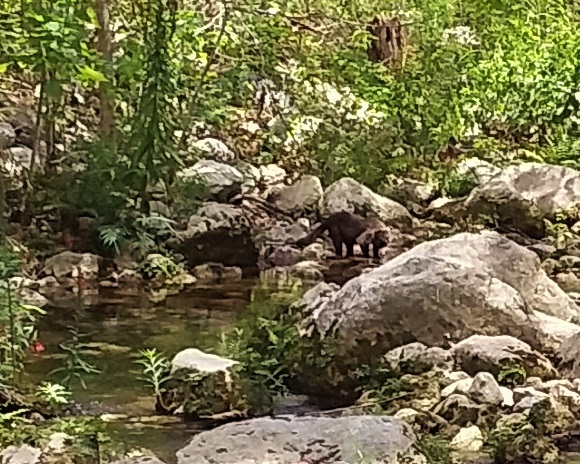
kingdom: Animalia
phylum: Chordata
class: Mammalia
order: Carnivora
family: Procyonidae
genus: Nasua
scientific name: Nasua narica
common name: White-nosed coati
